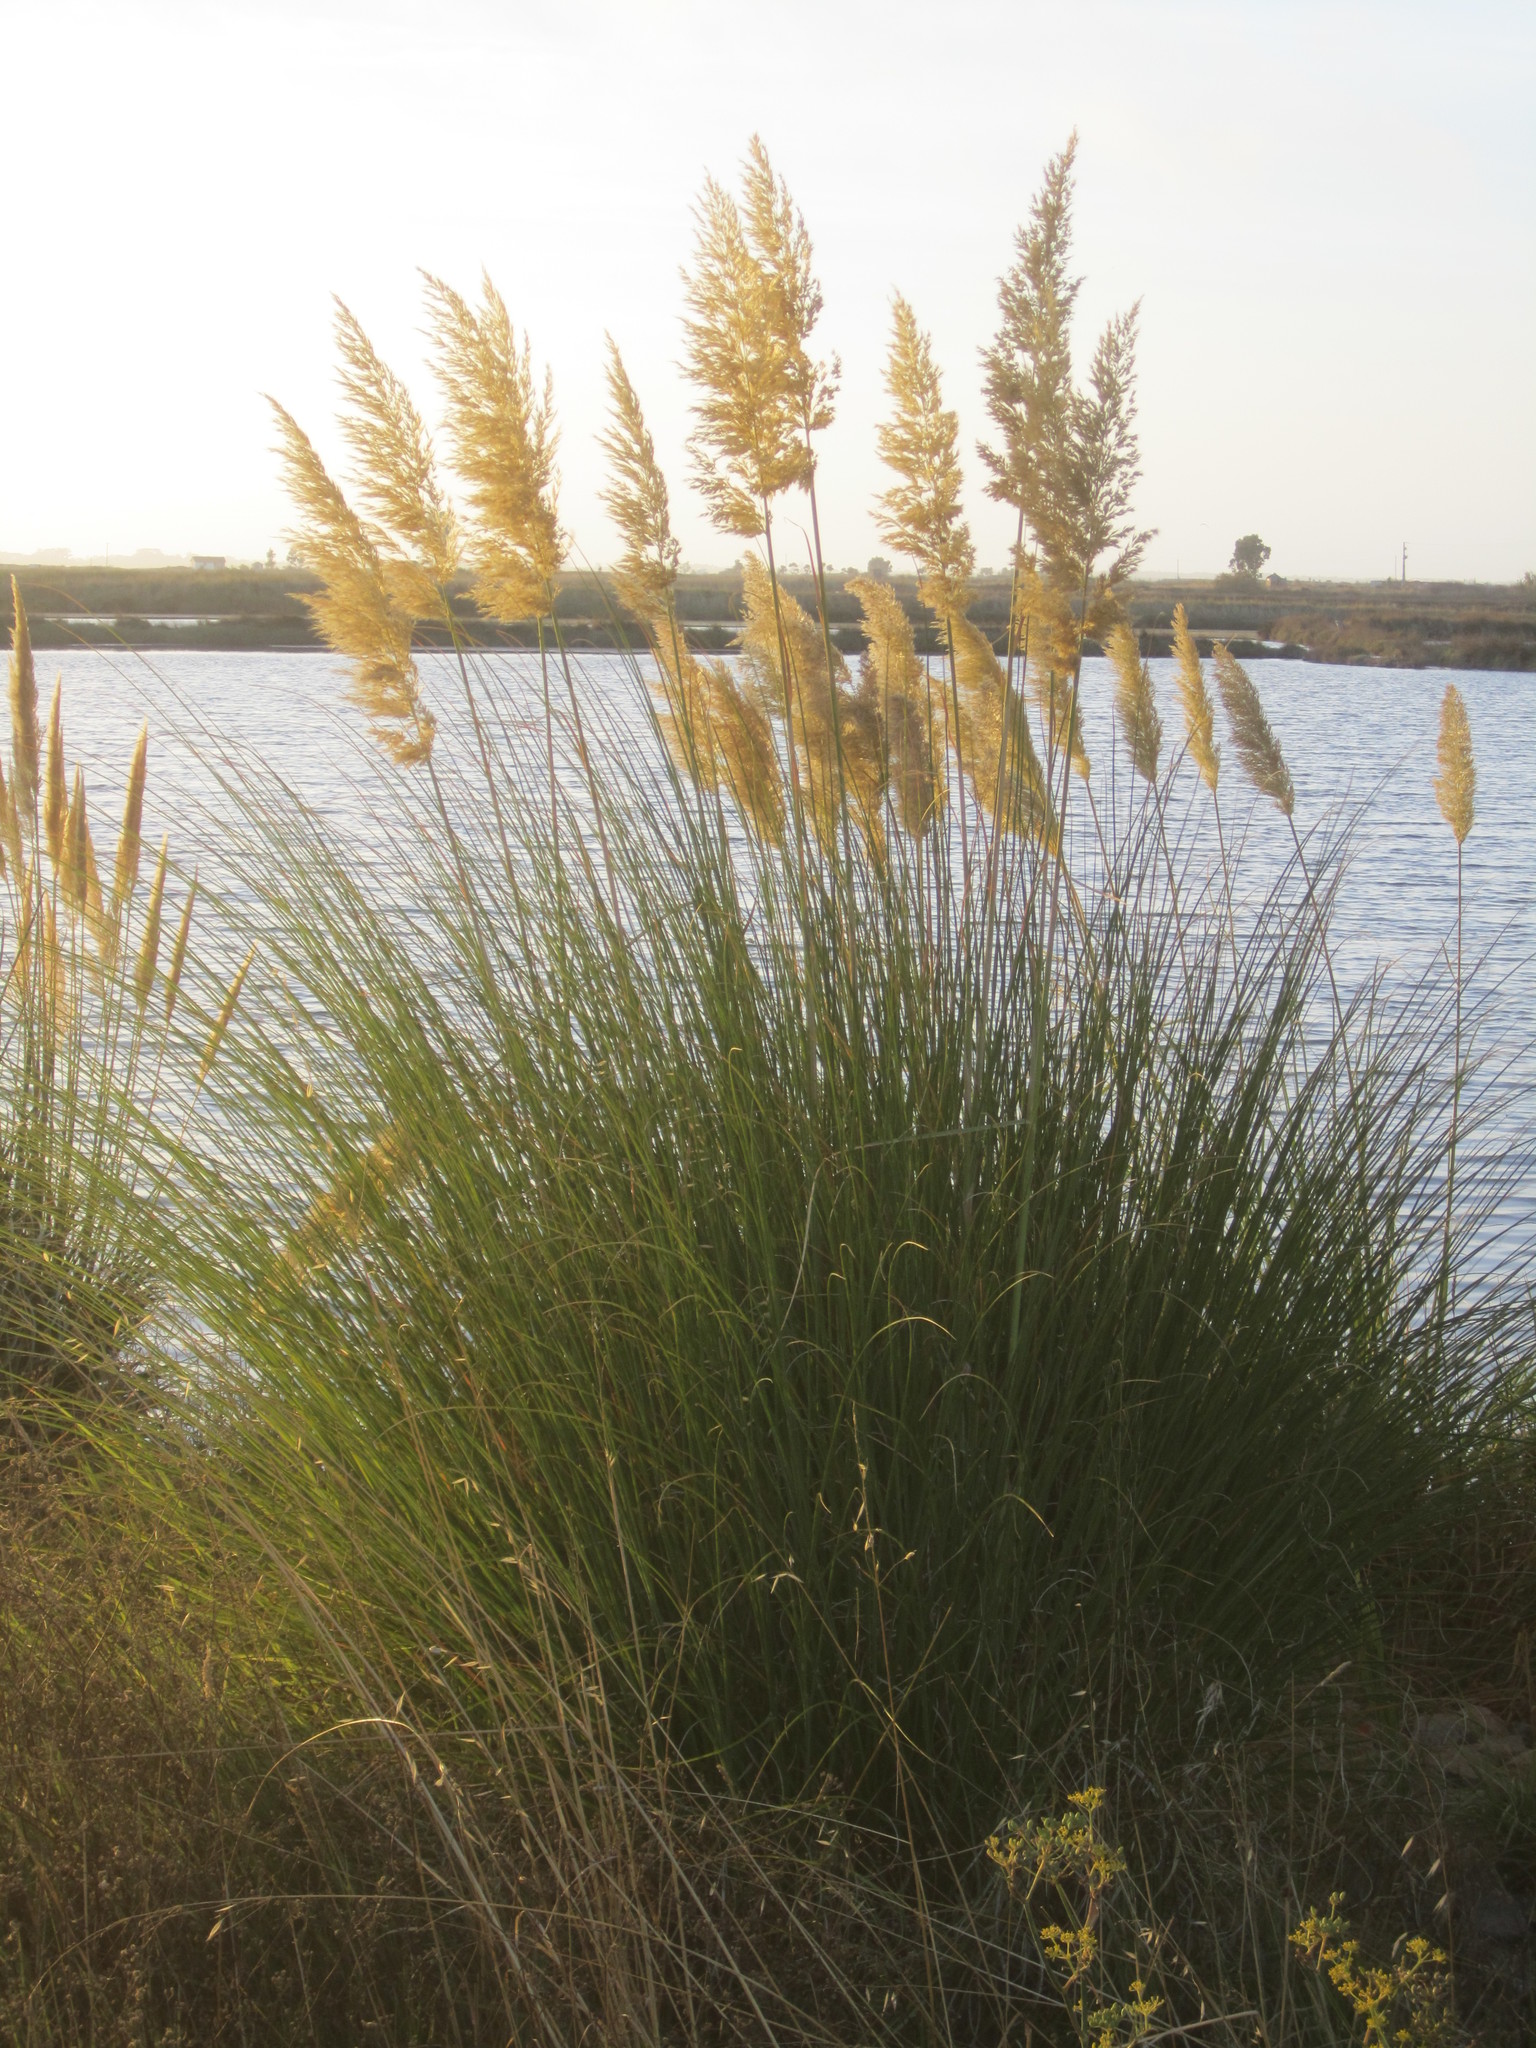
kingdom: Plantae
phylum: Tracheophyta
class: Liliopsida
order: Poales
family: Poaceae
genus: Cortaderia
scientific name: Cortaderia selloana
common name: Uruguayan pampas grass
